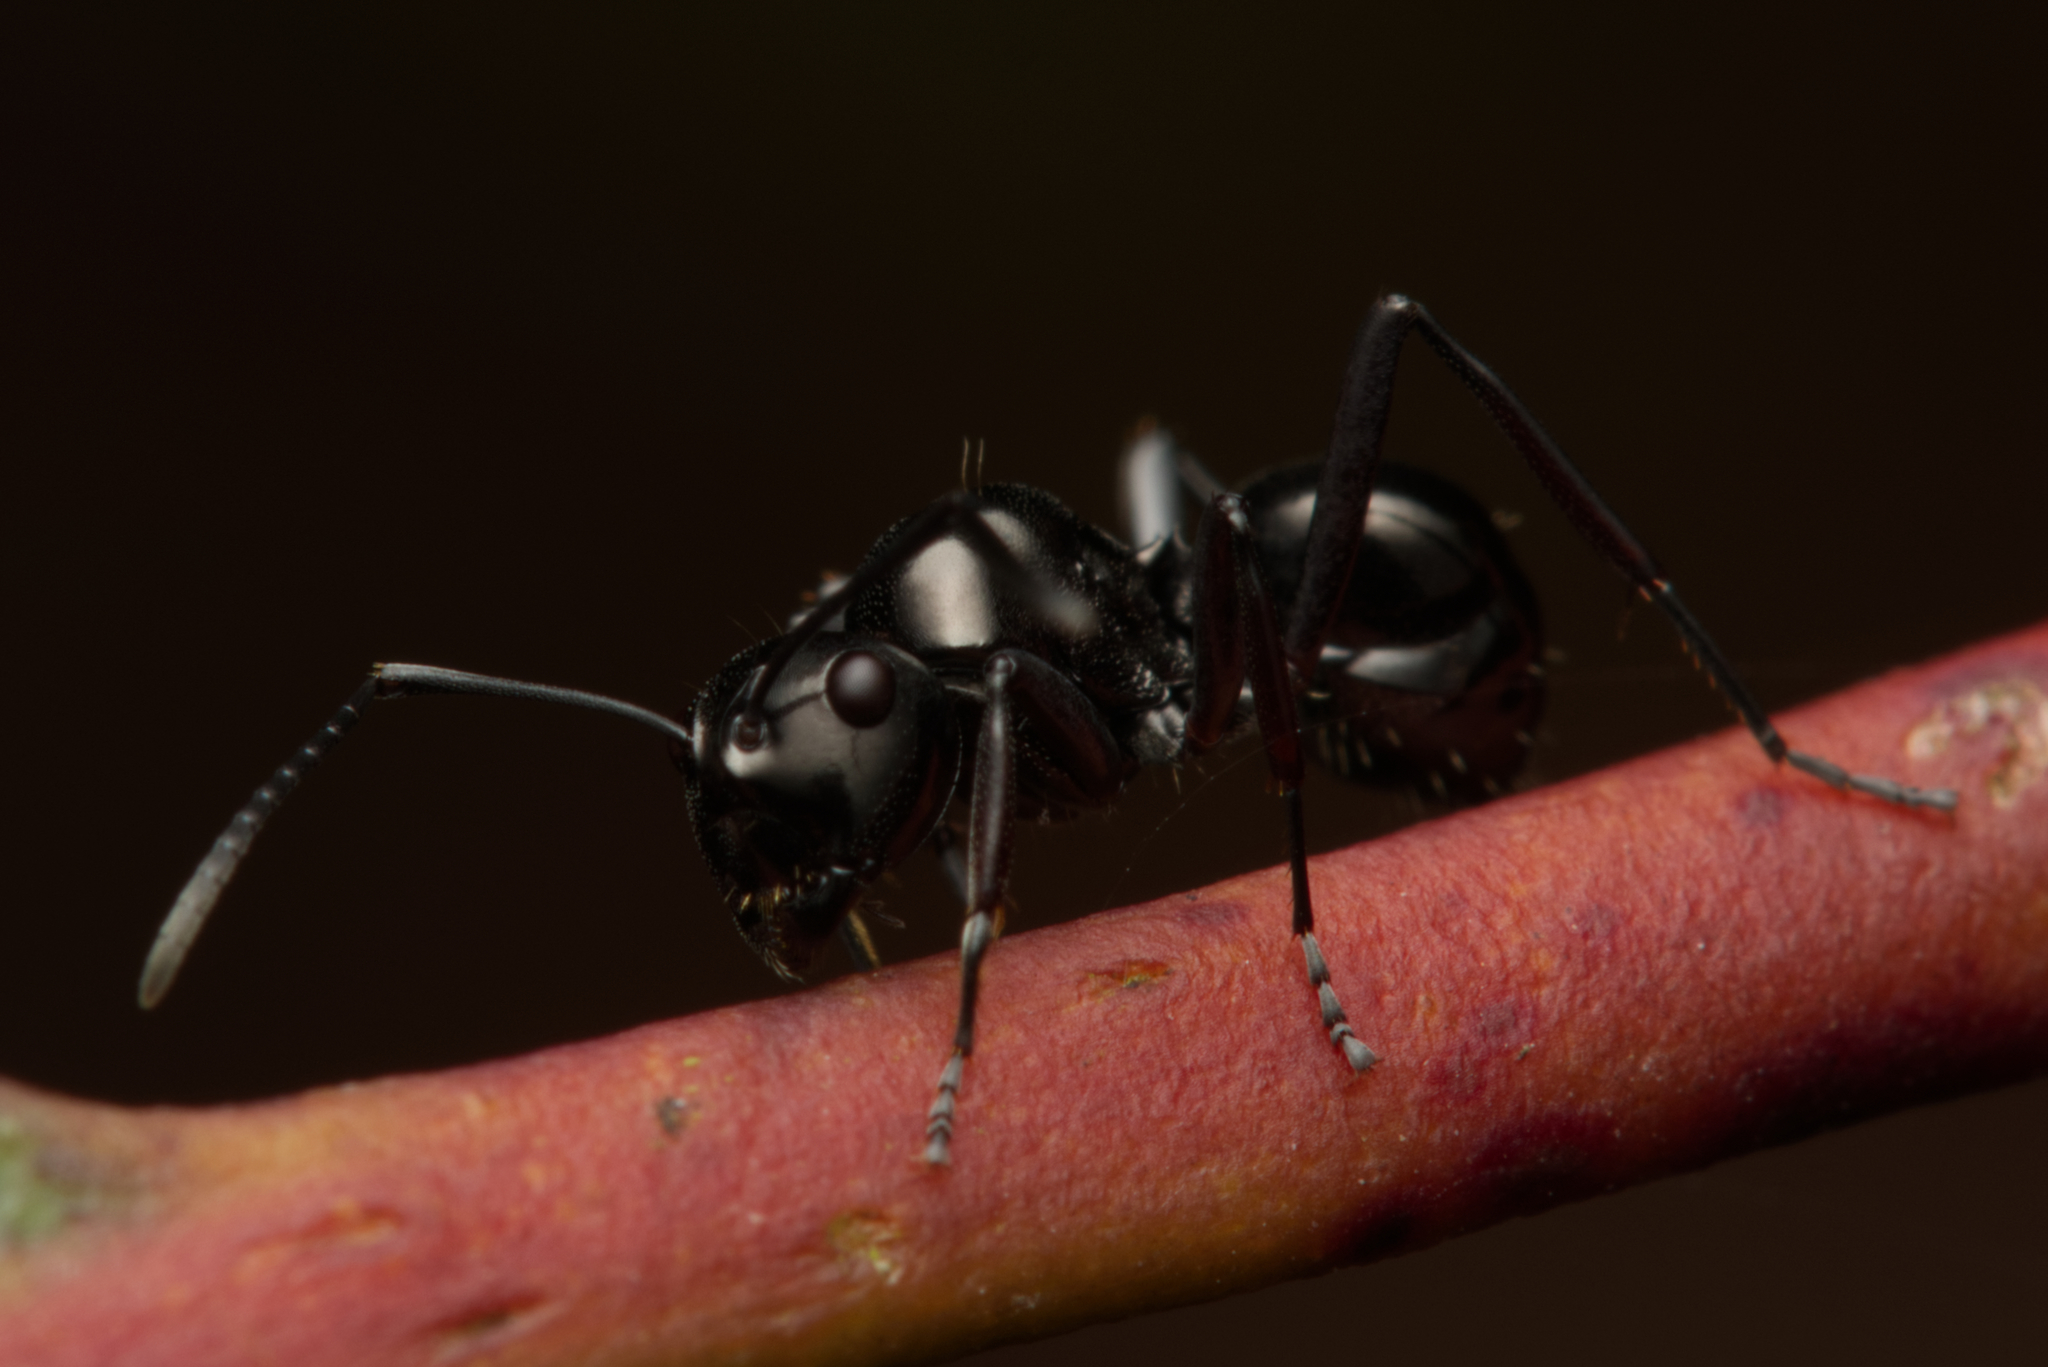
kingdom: Animalia
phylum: Arthropoda
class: Insecta
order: Hymenoptera
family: Formicidae
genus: Polyrhachis
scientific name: Polyrhachis australis
